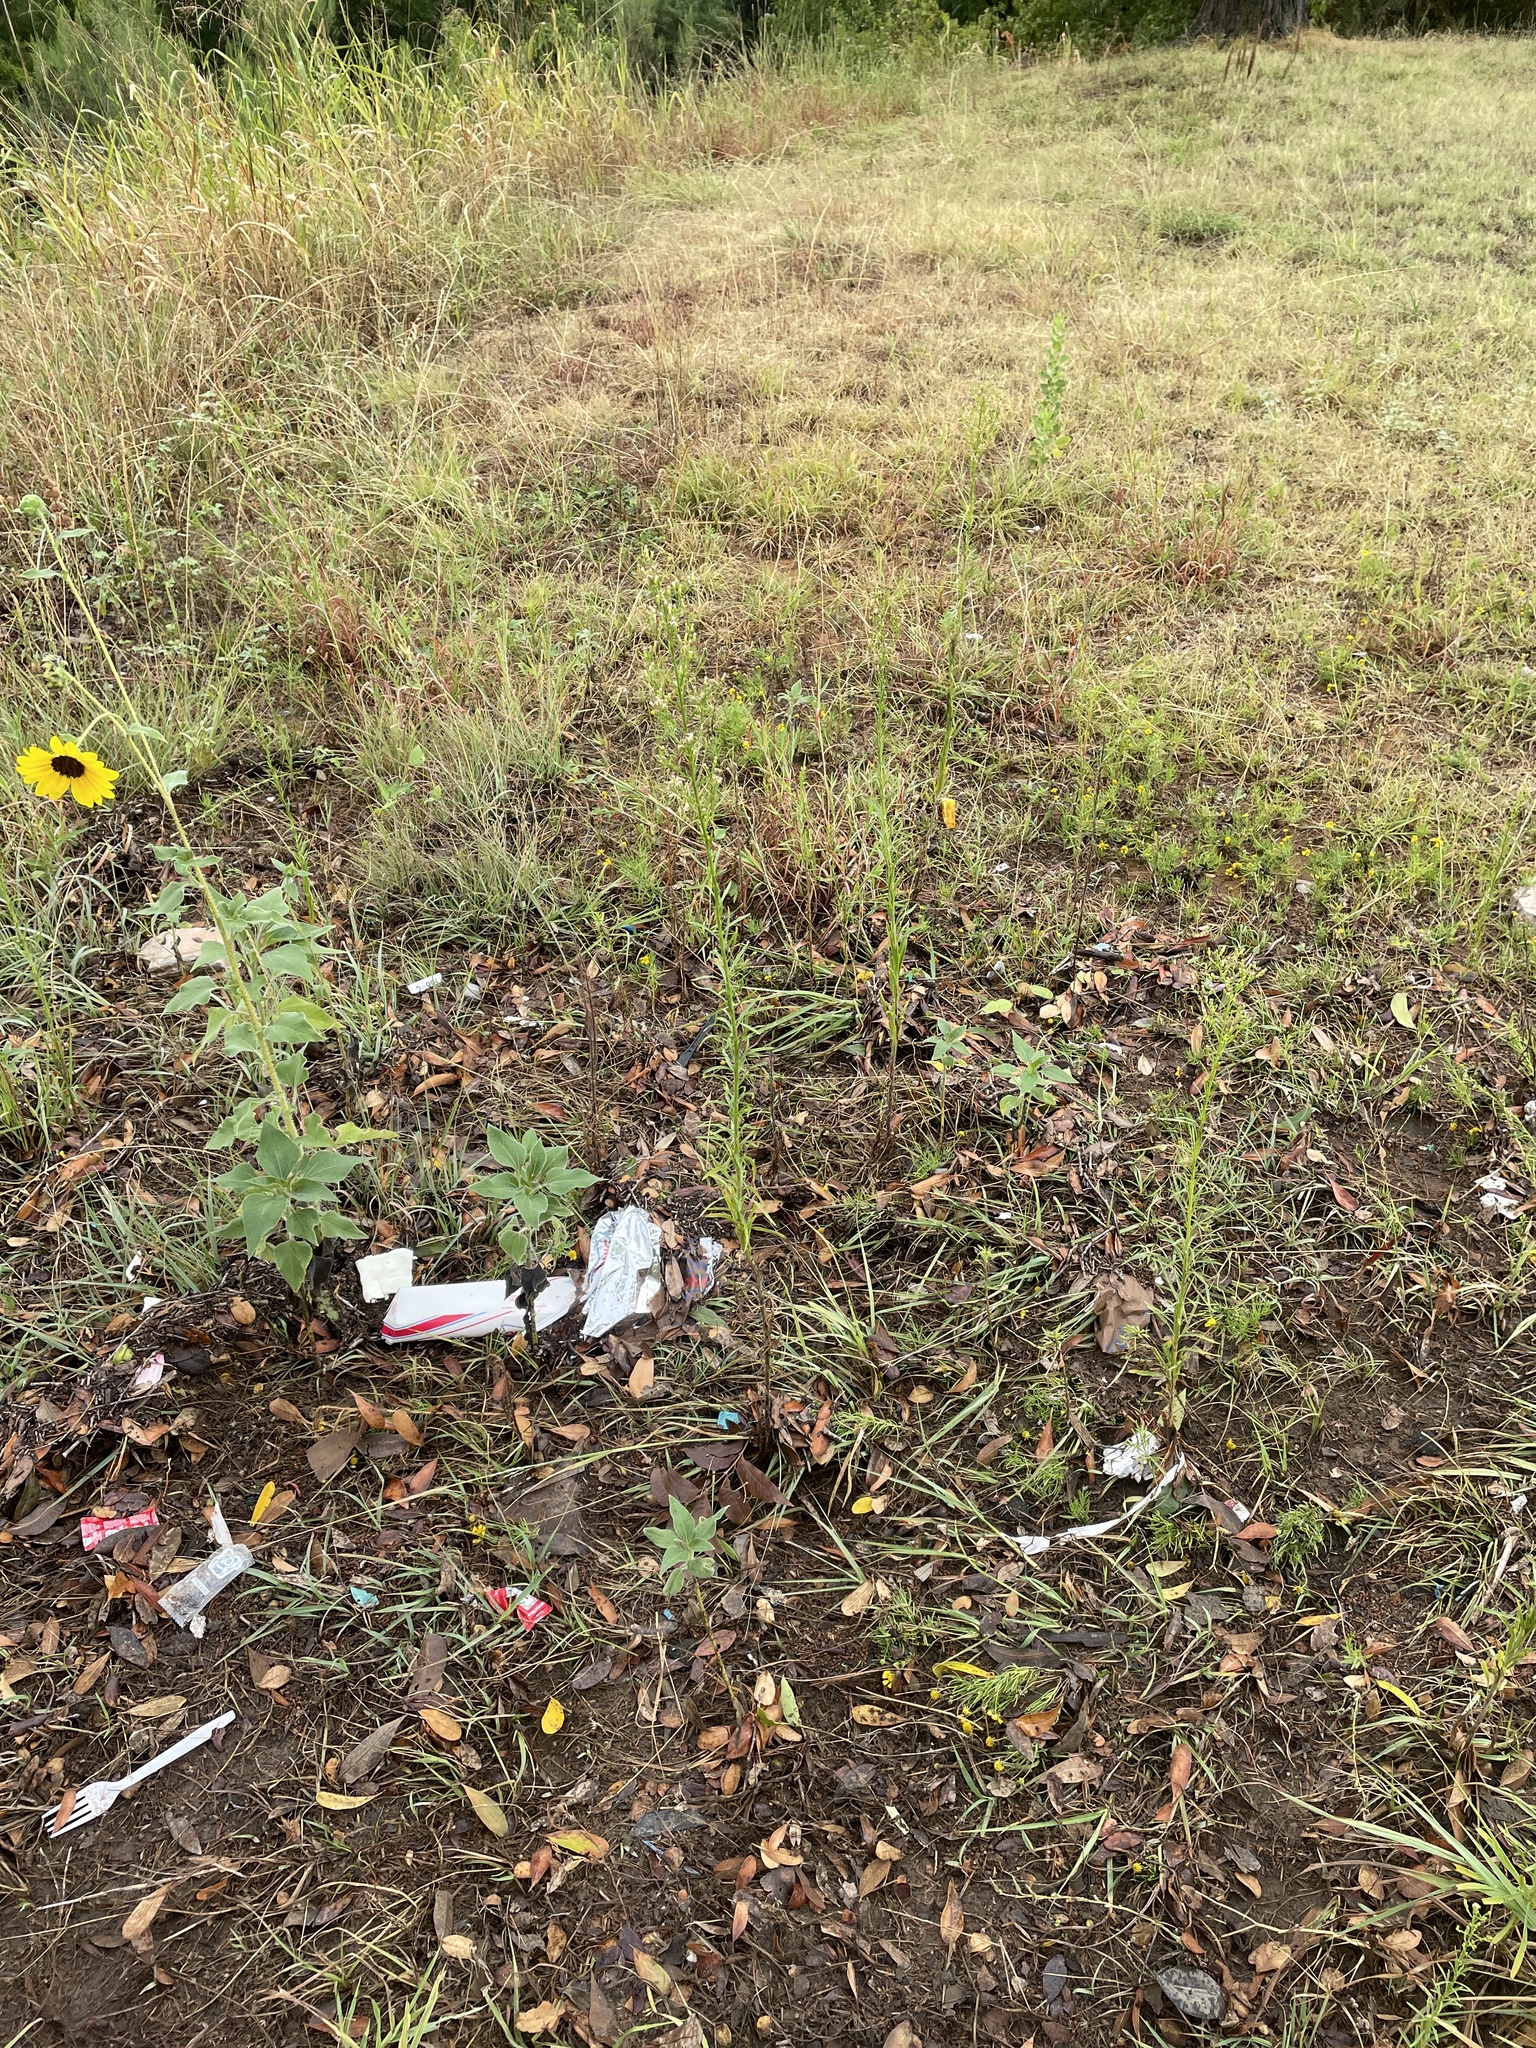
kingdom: Plantae
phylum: Tracheophyta
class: Magnoliopsida
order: Asterales
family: Asteraceae
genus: Erigeron
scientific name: Erigeron canadensis
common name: Canadian fleabane
